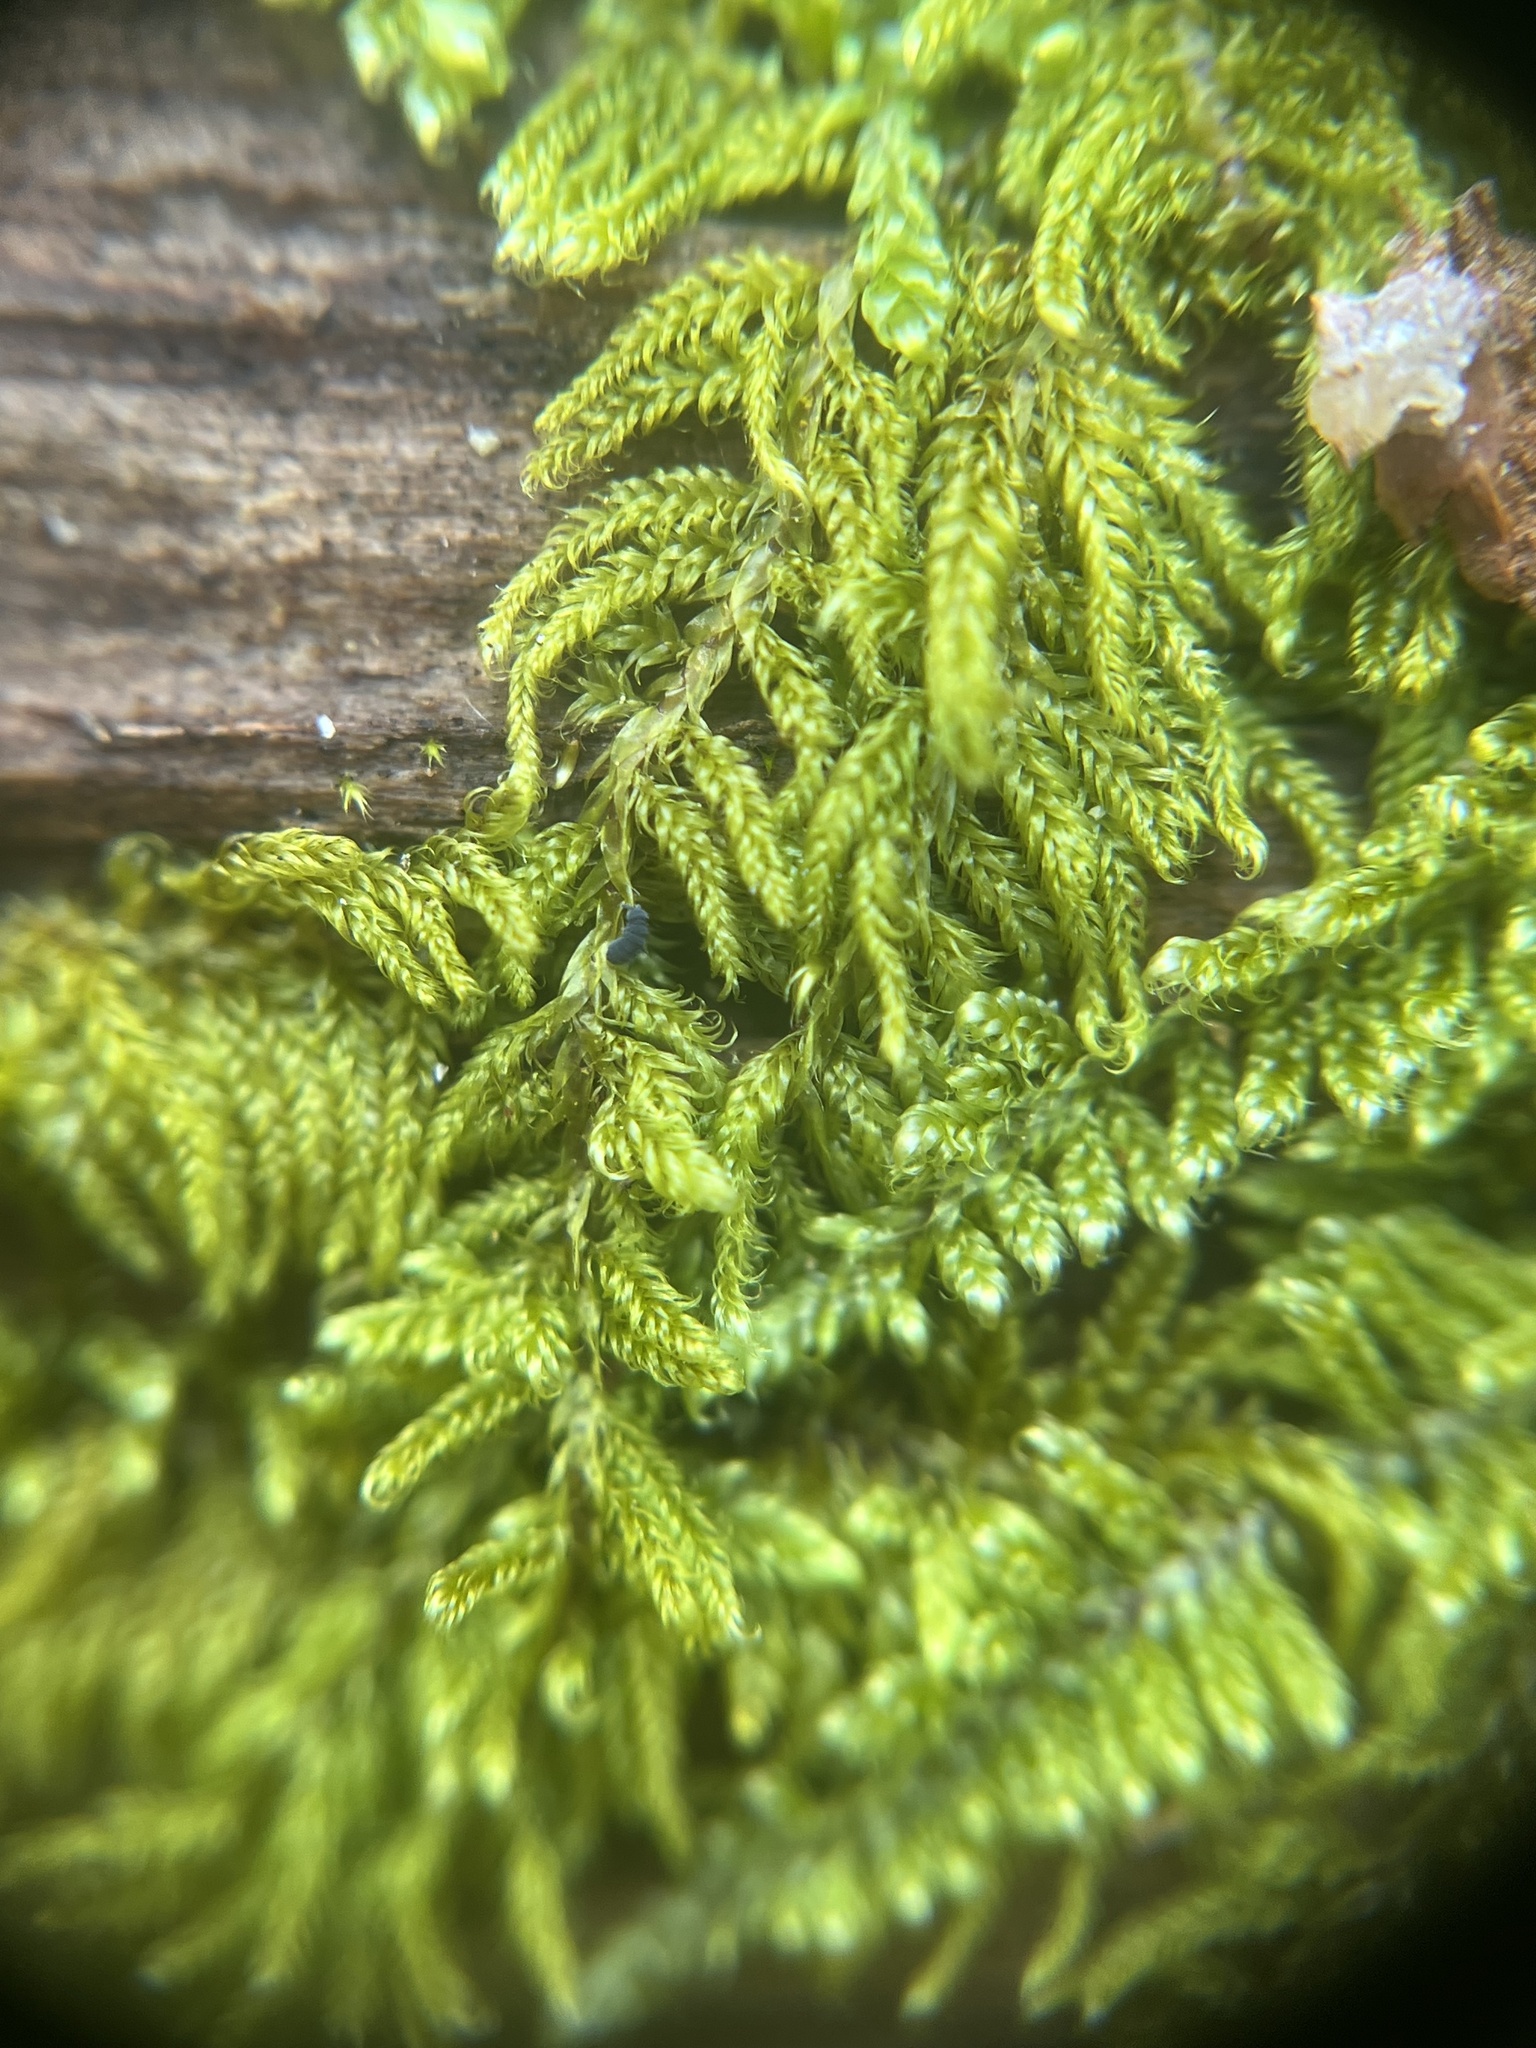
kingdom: Plantae
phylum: Bryophyta
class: Bryopsida
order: Hypnales
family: Callicladiaceae
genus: Callicladium
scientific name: Callicladium imponens
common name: Brocade moss
